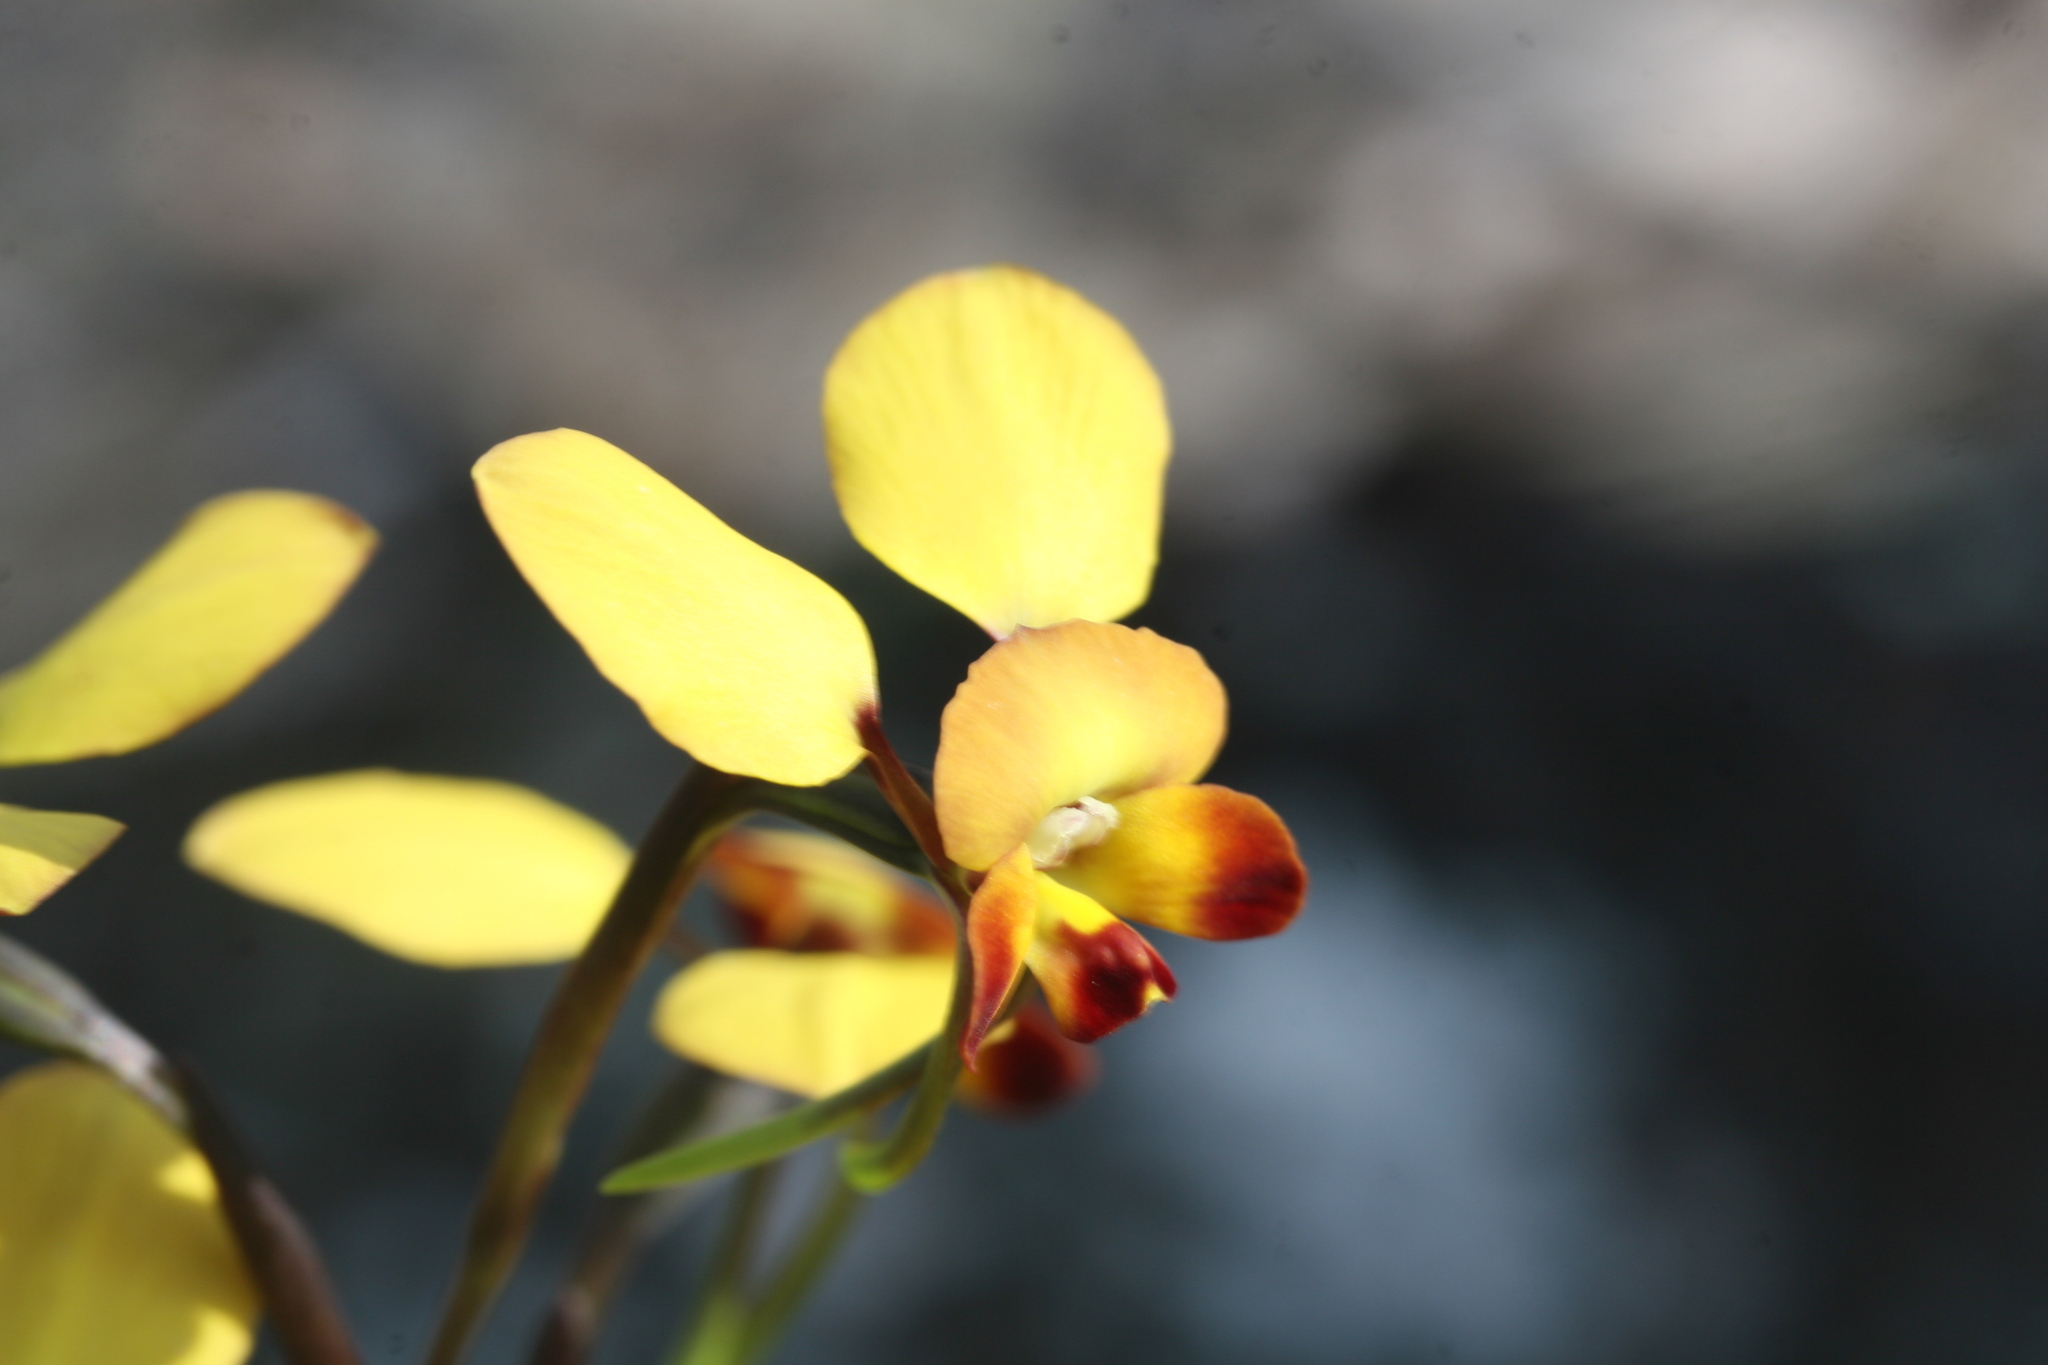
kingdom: Plantae
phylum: Tracheophyta
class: Liliopsida
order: Asparagales
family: Orchidaceae
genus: Diuris
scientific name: Diuris porrifolia
